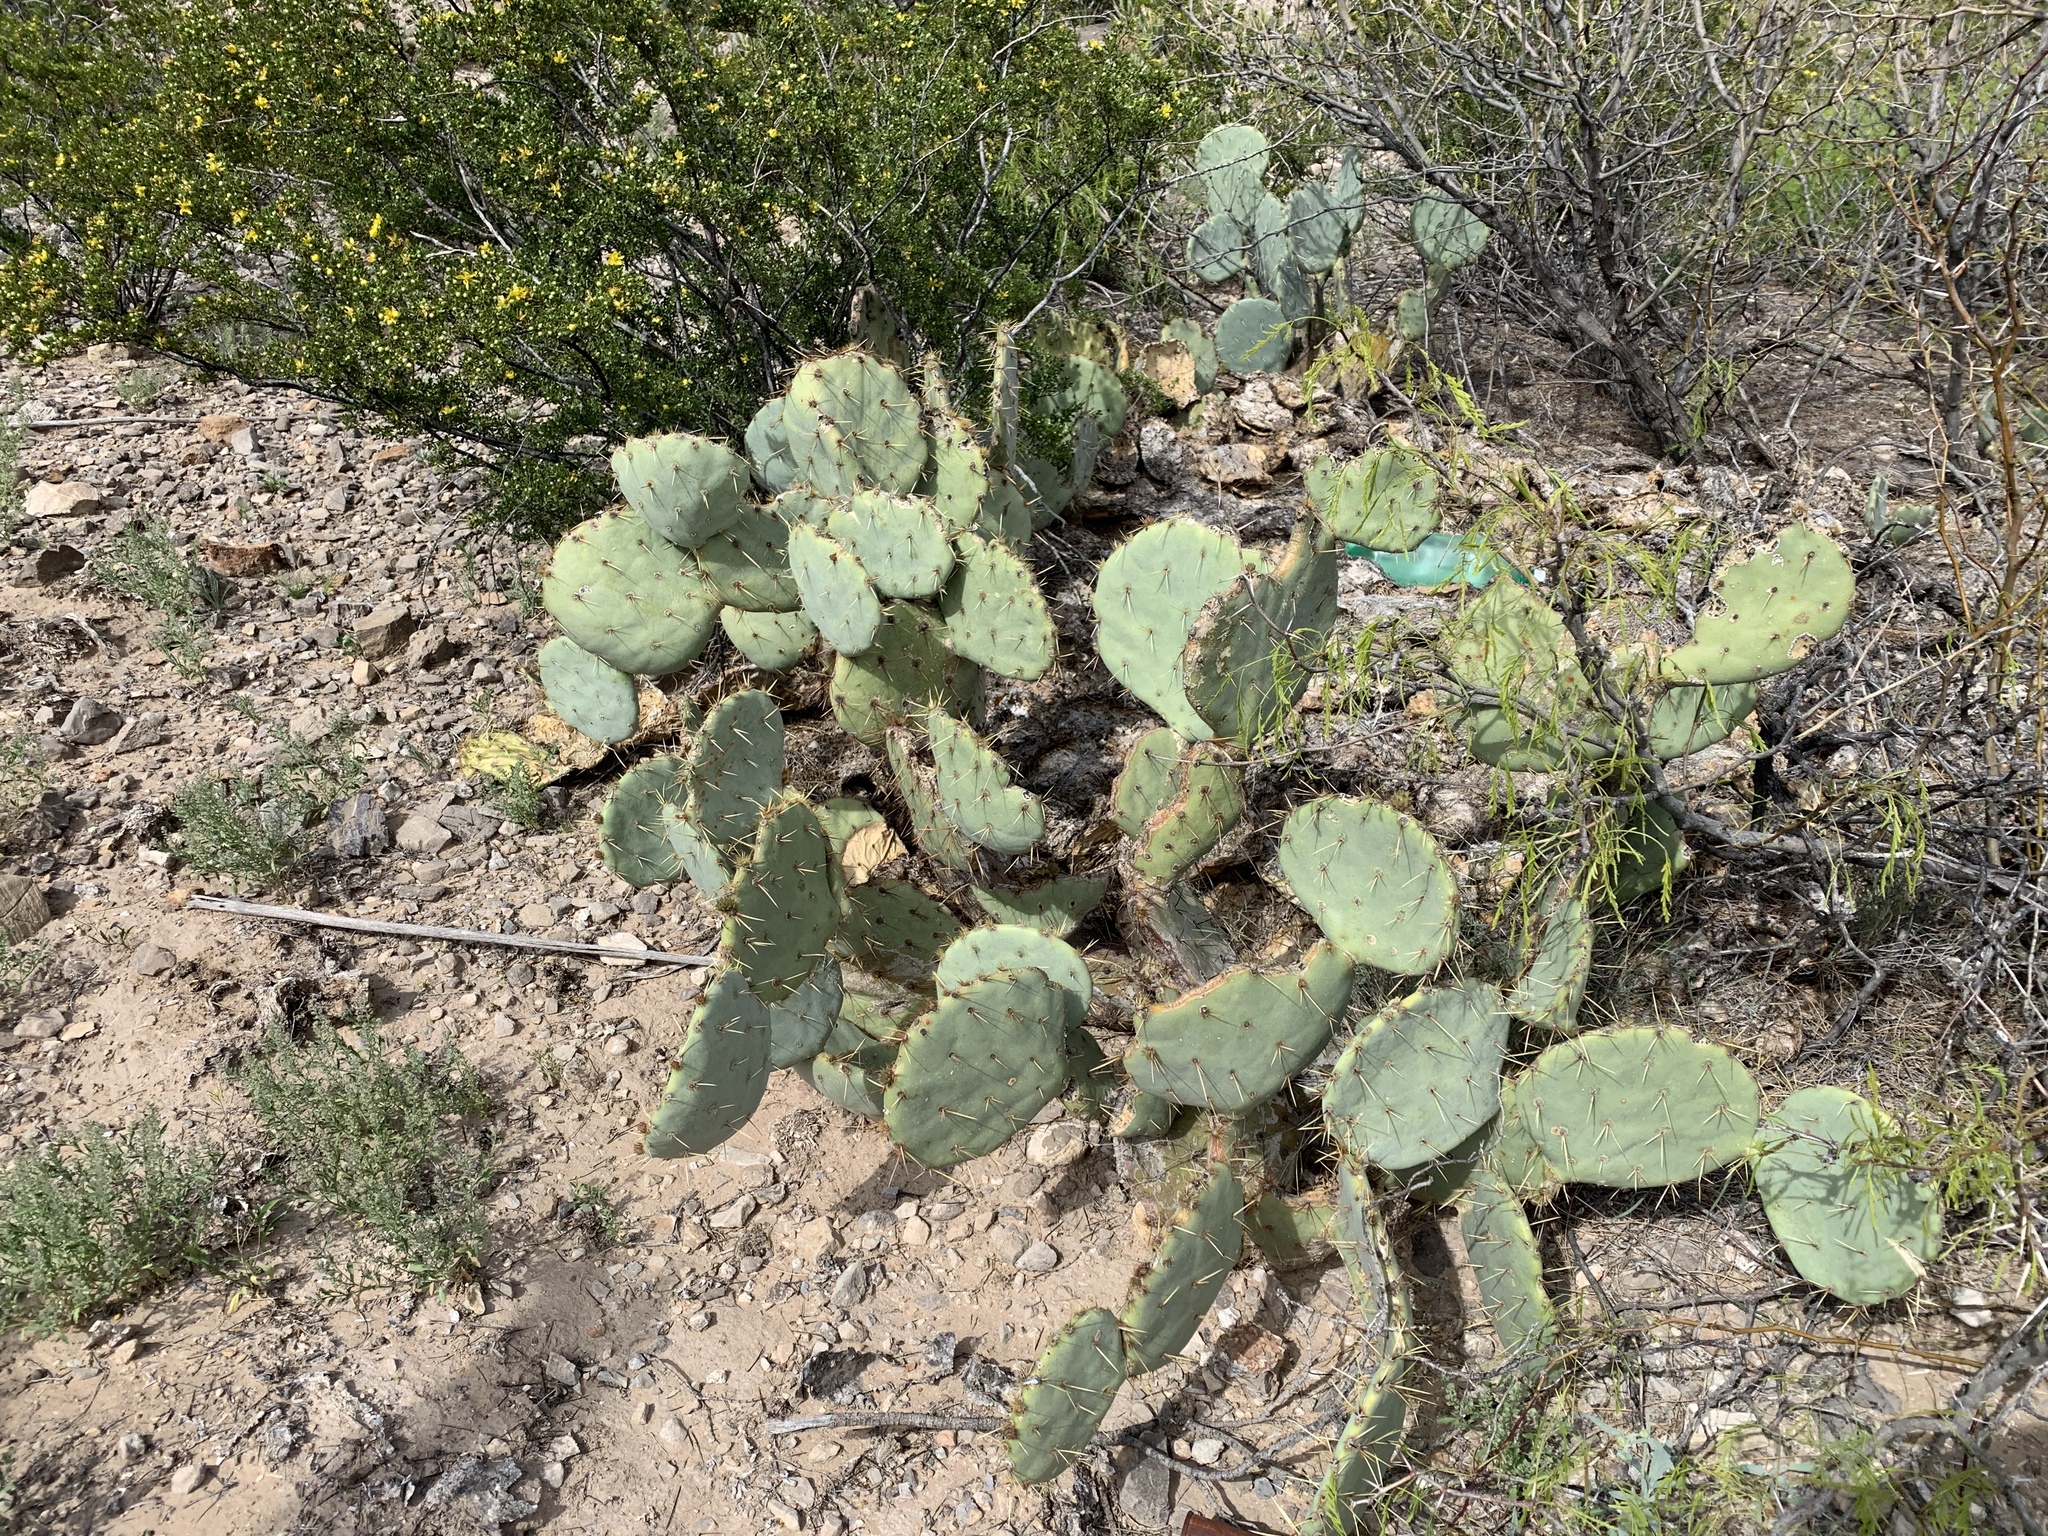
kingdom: Plantae
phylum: Tracheophyta
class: Magnoliopsida
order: Caryophyllales
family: Cactaceae
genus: Opuntia
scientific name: Opuntia engelmannii
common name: Cactus-apple
